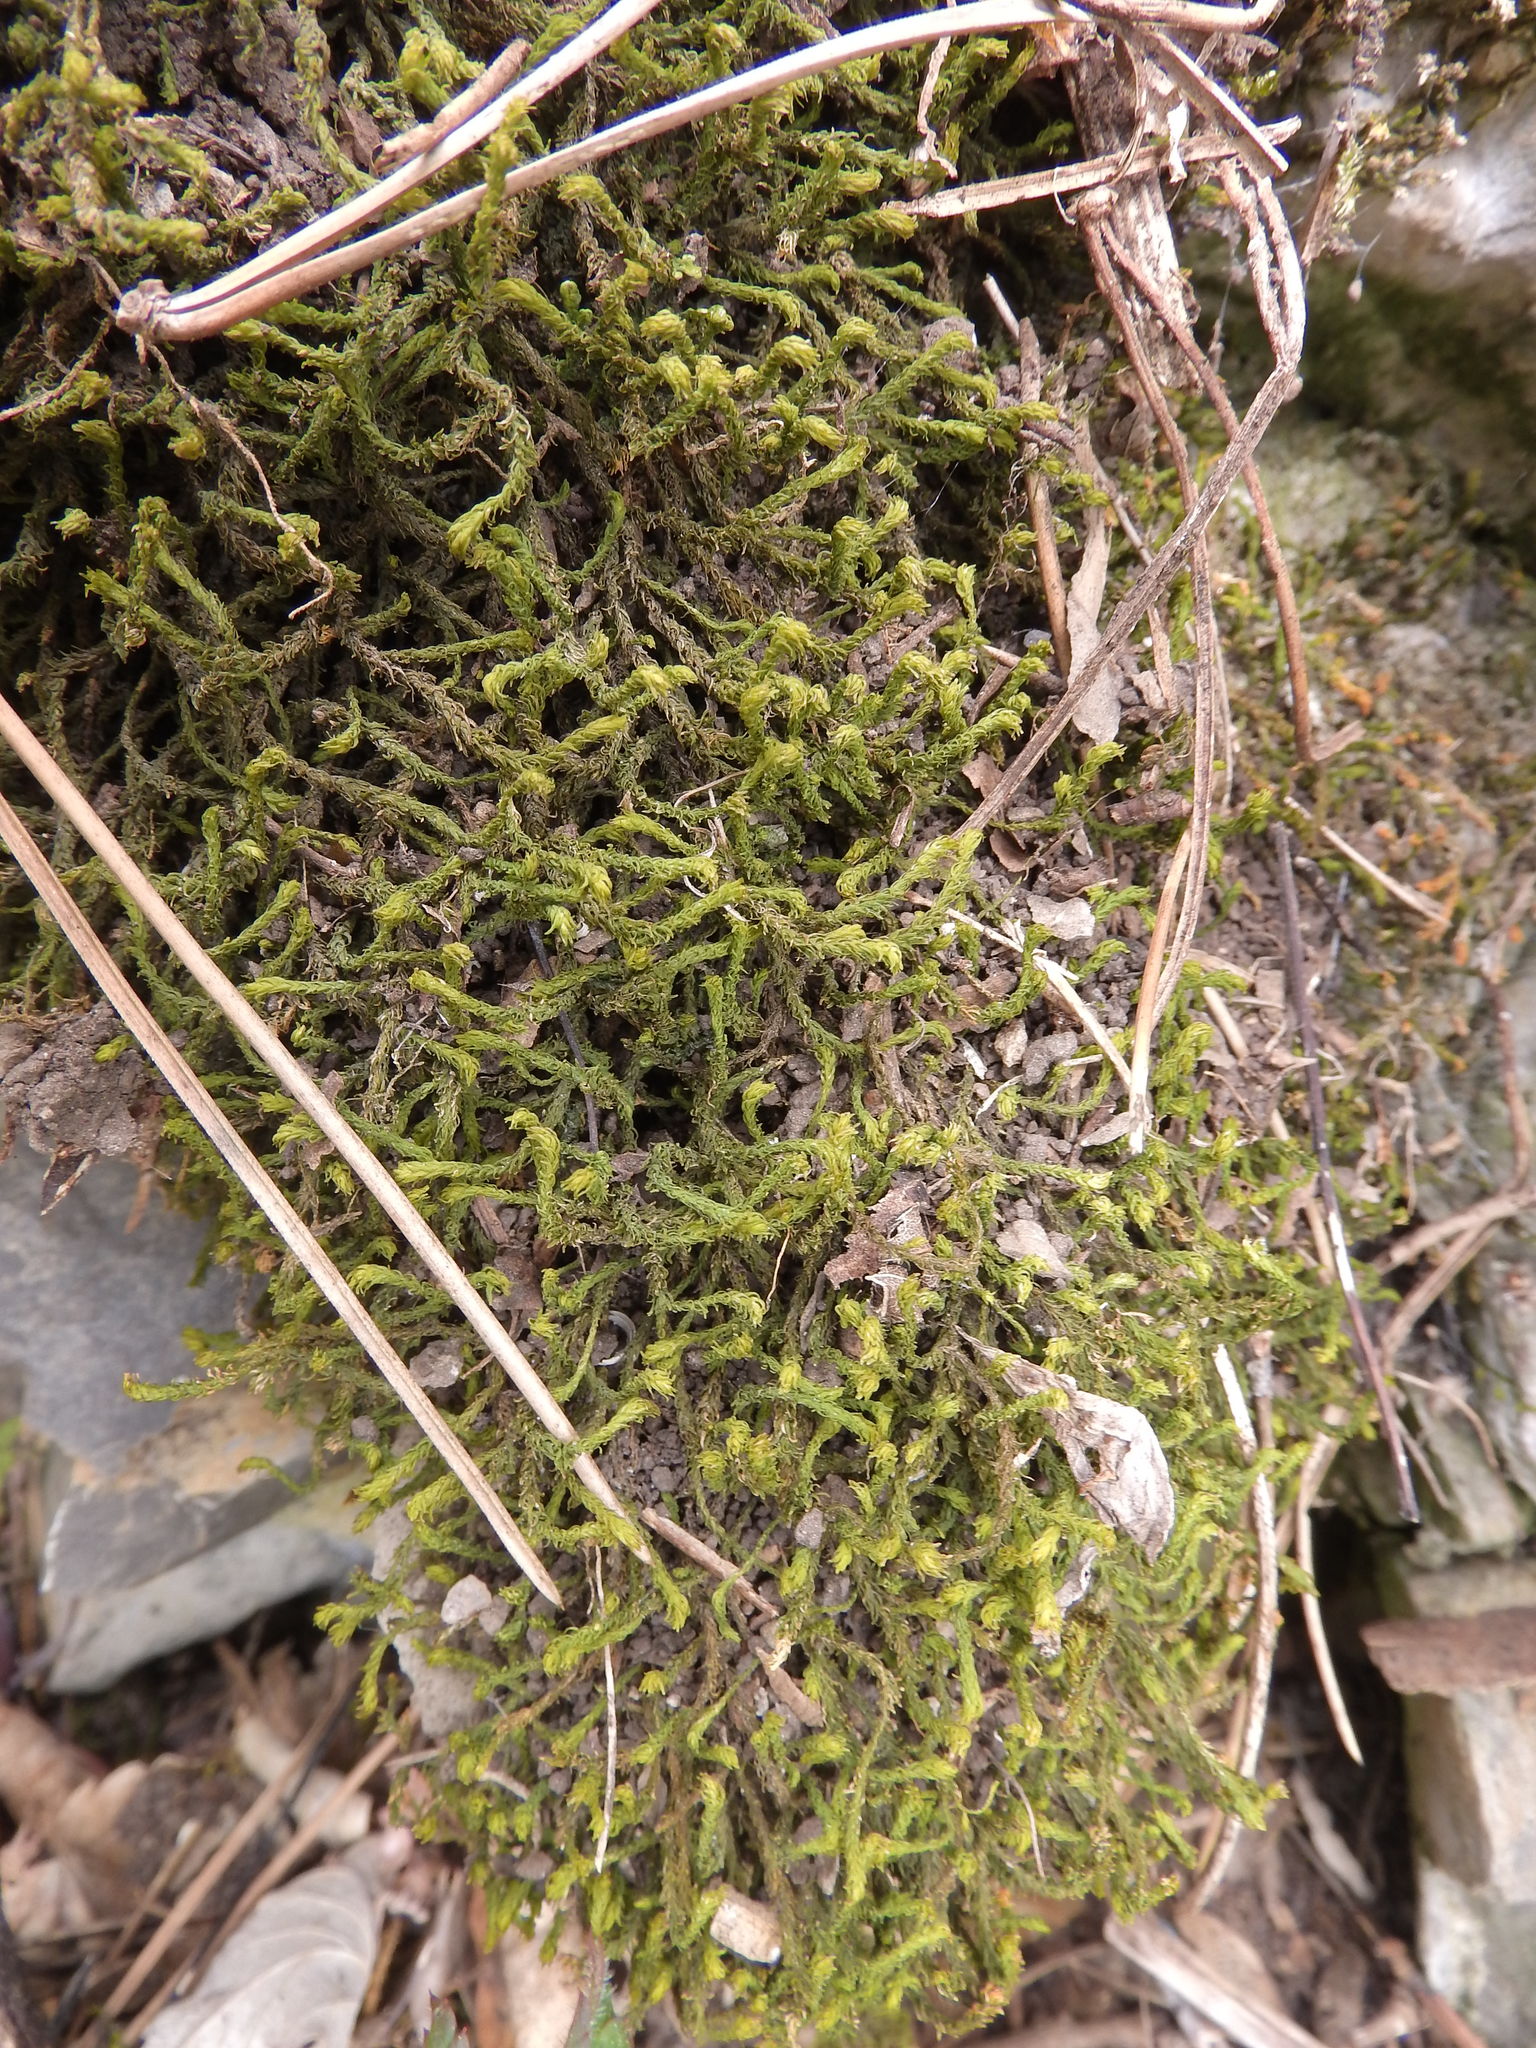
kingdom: Plantae
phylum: Bryophyta
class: Bryopsida
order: Hypnales
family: Anomodontaceae
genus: Anomodon
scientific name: Anomodon viticulosus
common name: Tall anomodon
